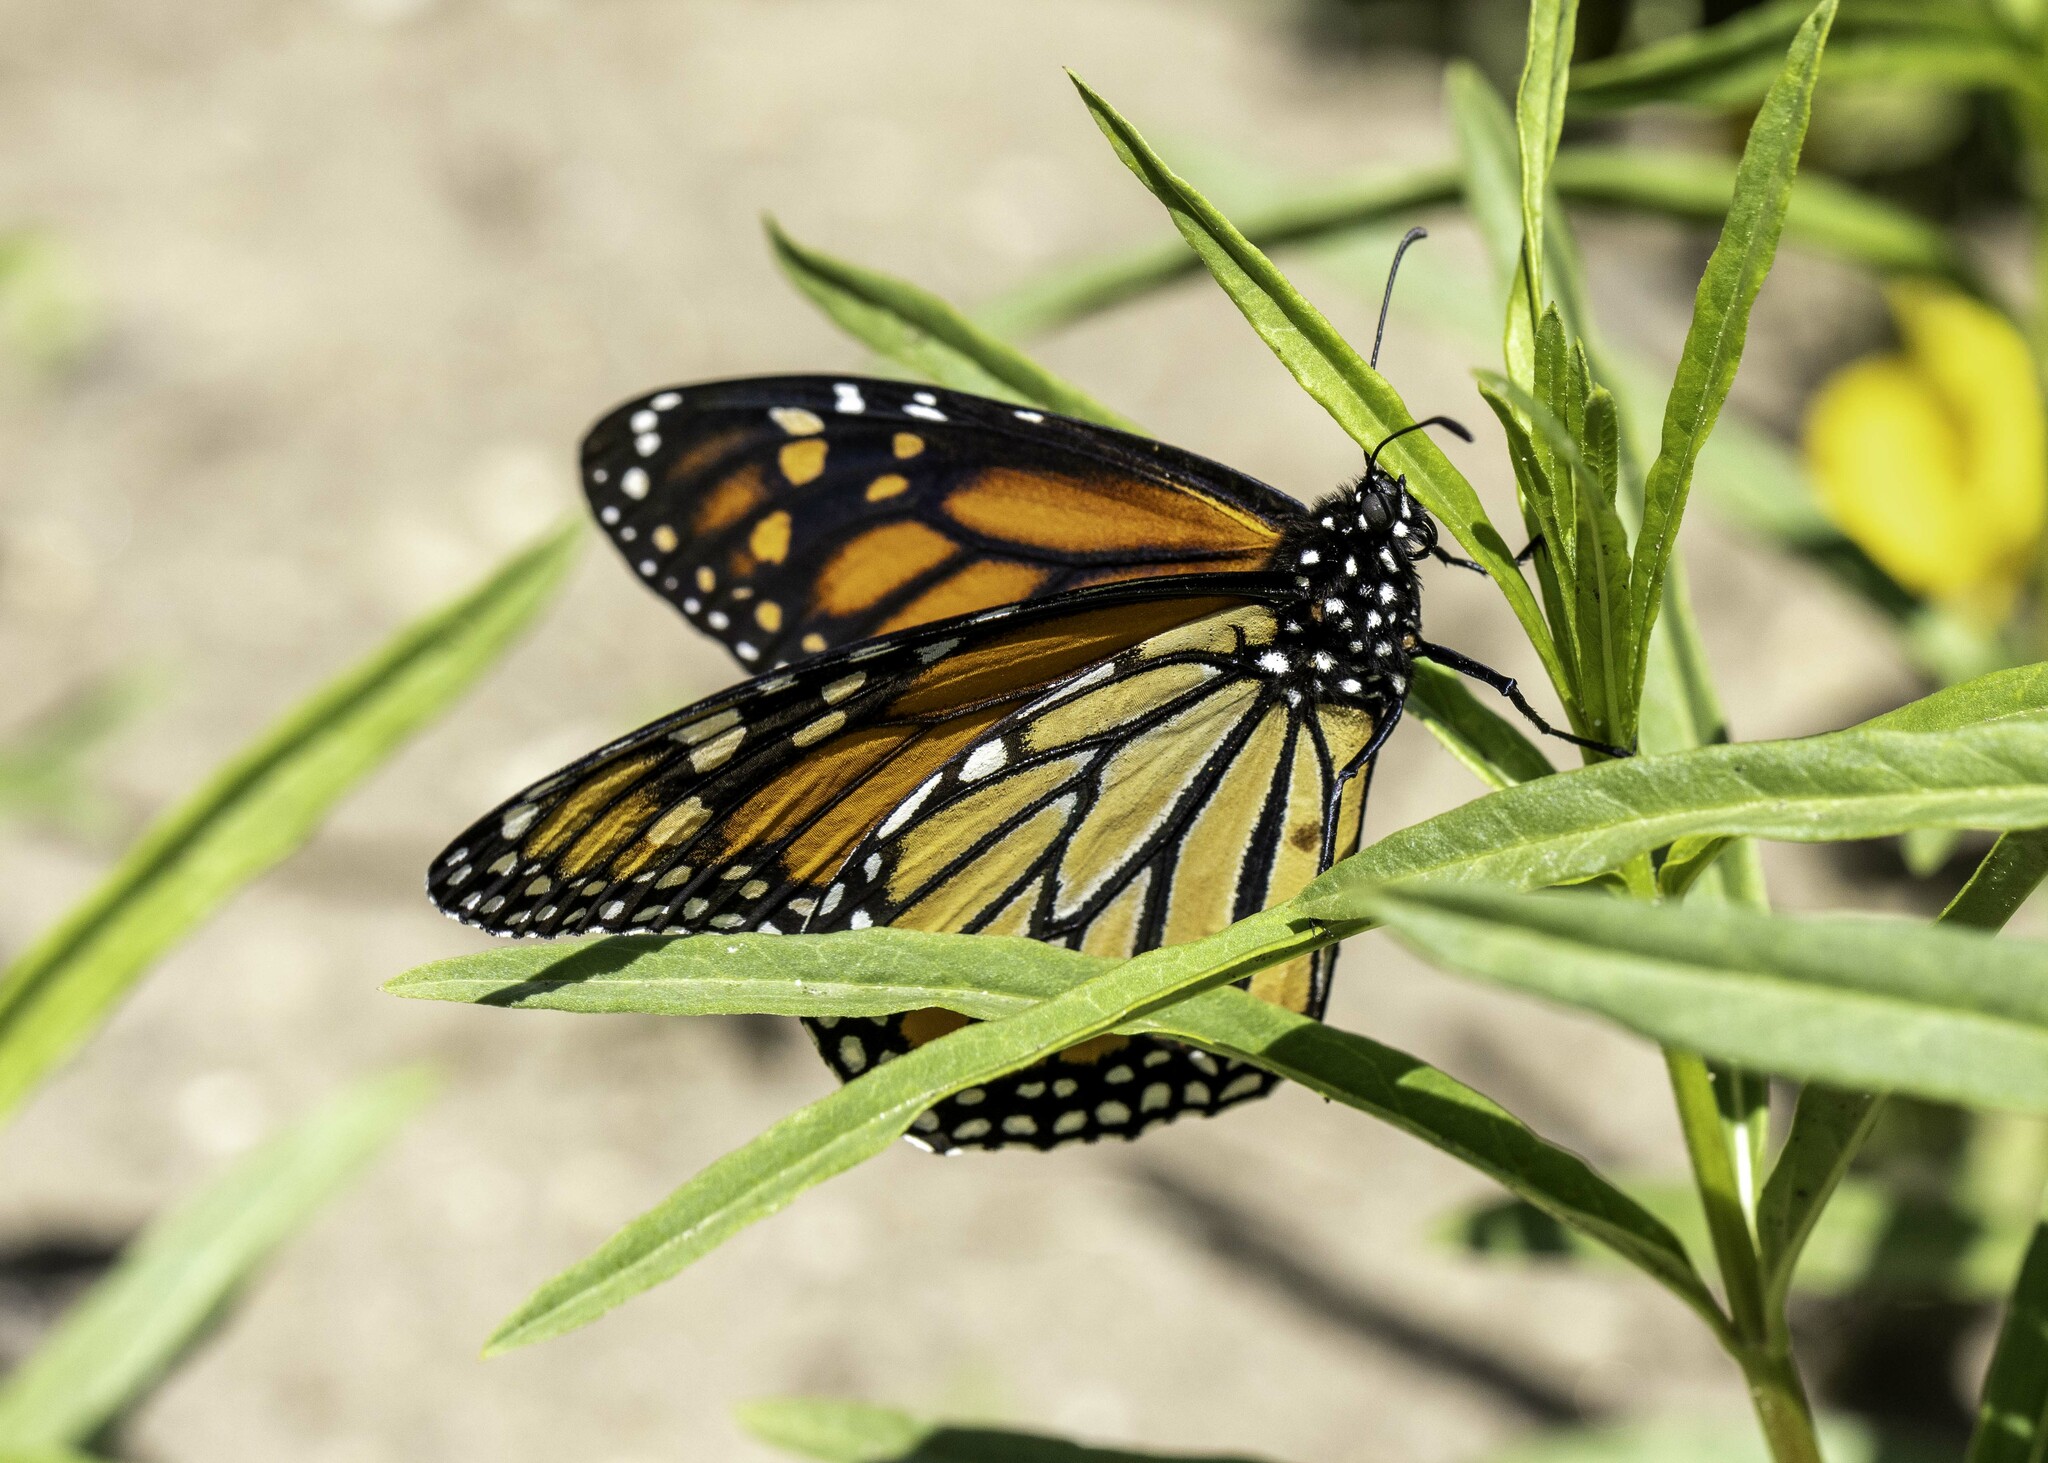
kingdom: Animalia
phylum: Arthropoda
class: Insecta
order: Lepidoptera
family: Nymphalidae
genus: Danaus
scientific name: Danaus plexippus
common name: Monarch
